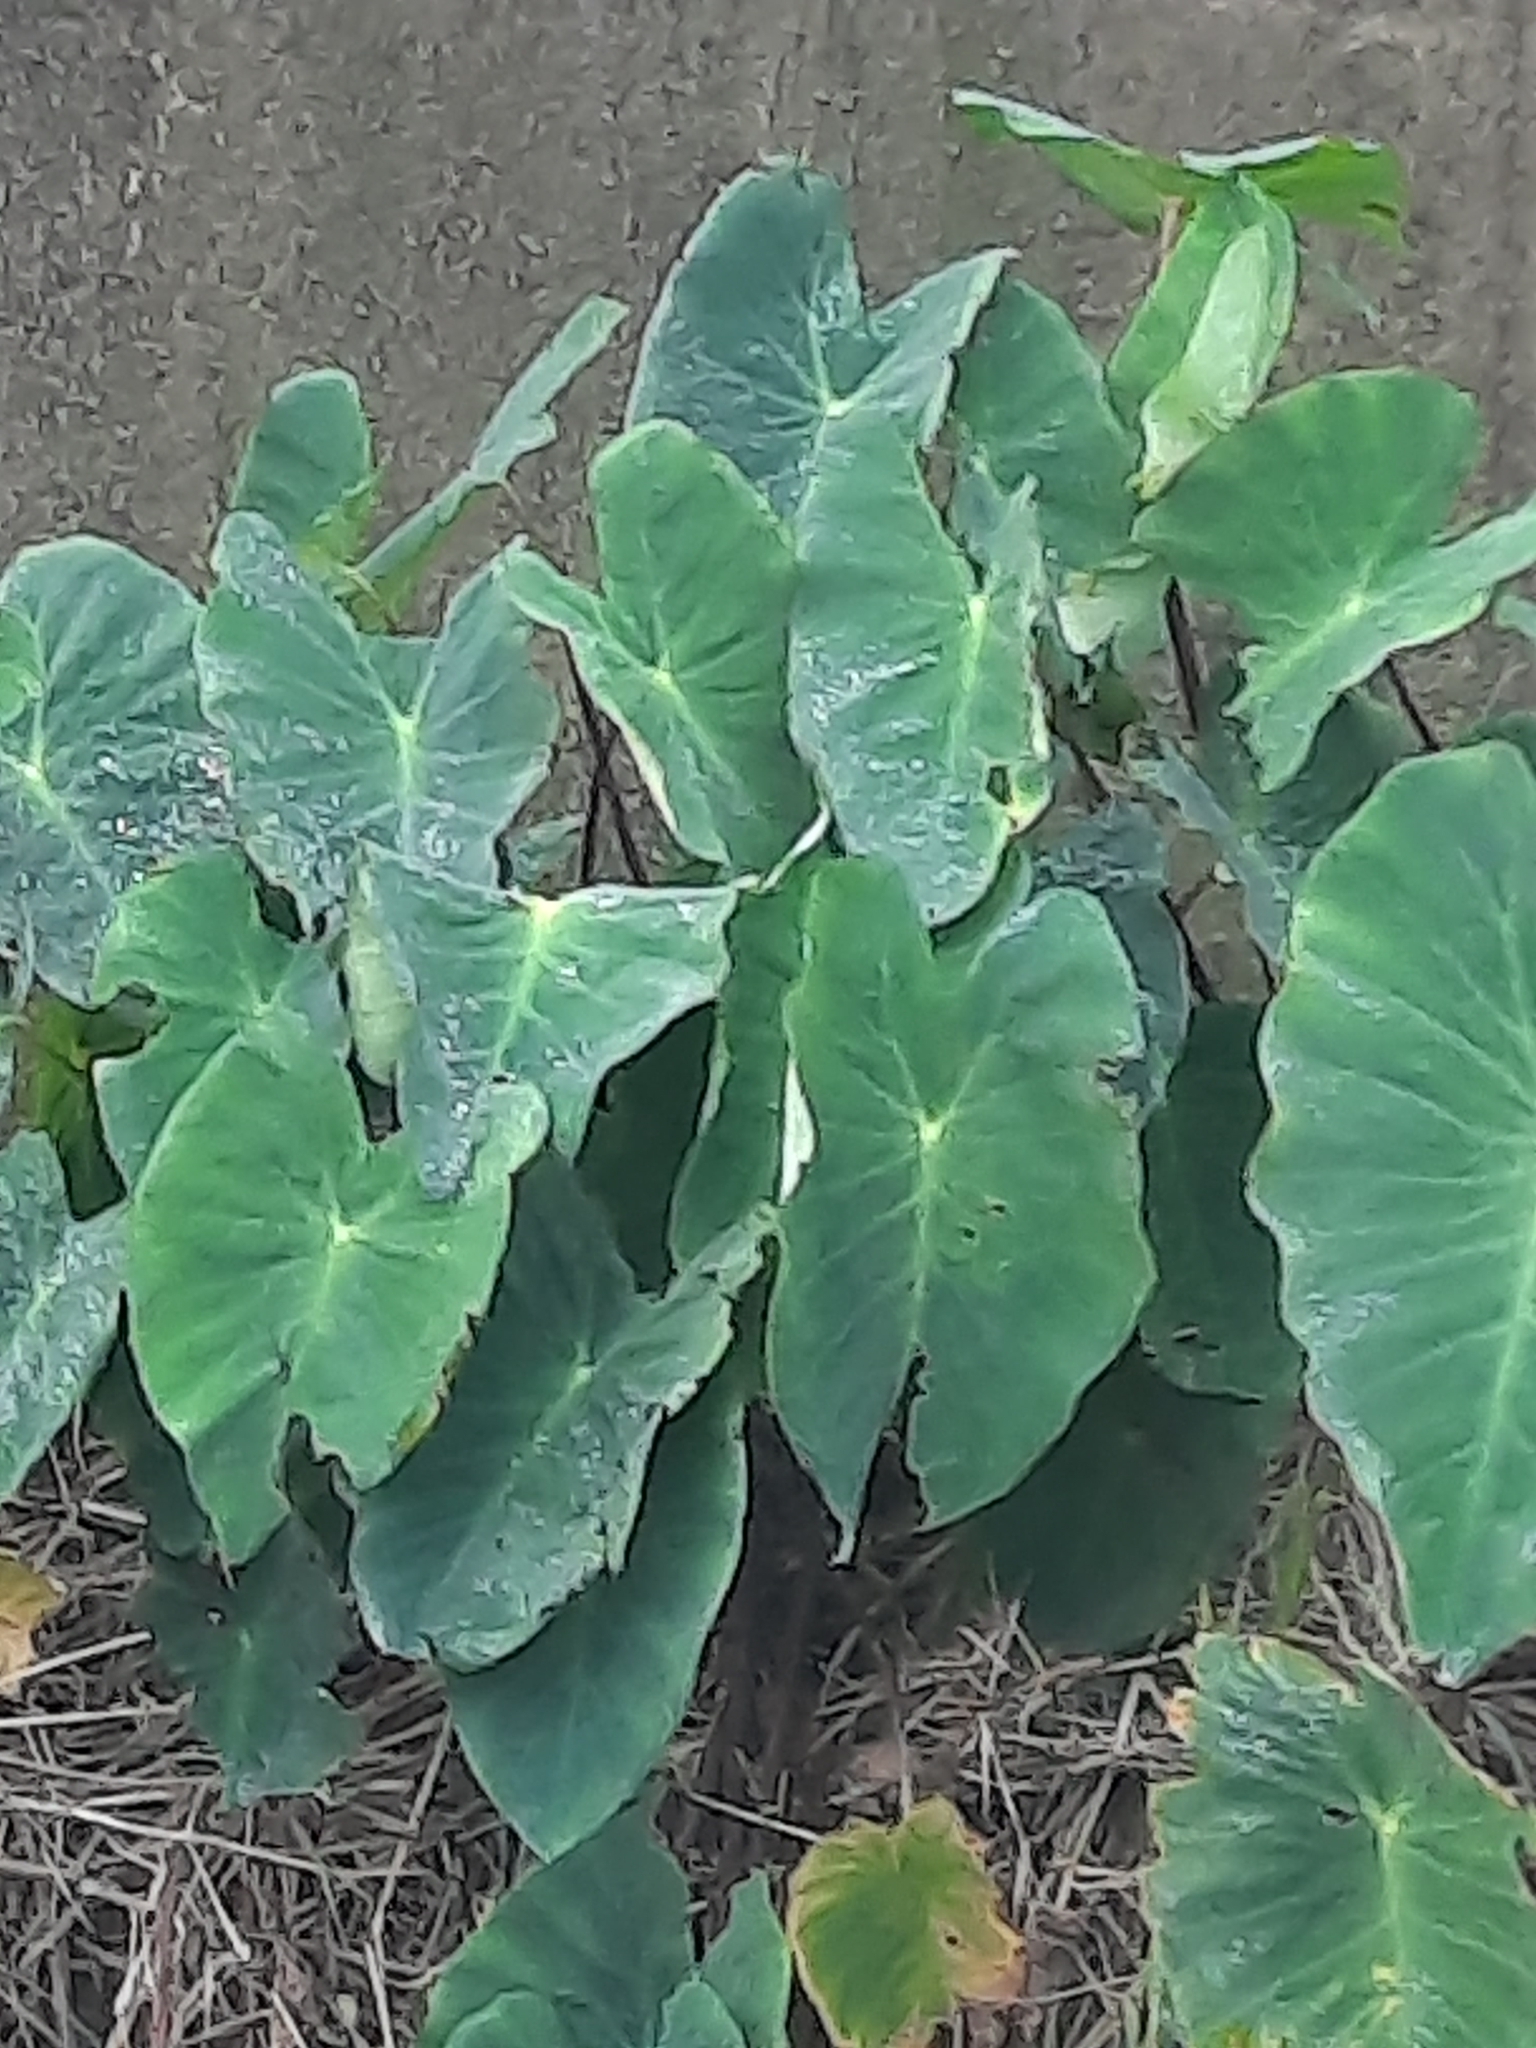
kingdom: Plantae
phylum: Tracheophyta
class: Liliopsida
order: Alismatales
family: Araceae
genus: Colocasia
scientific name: Colocasia esculenta
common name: Taro
